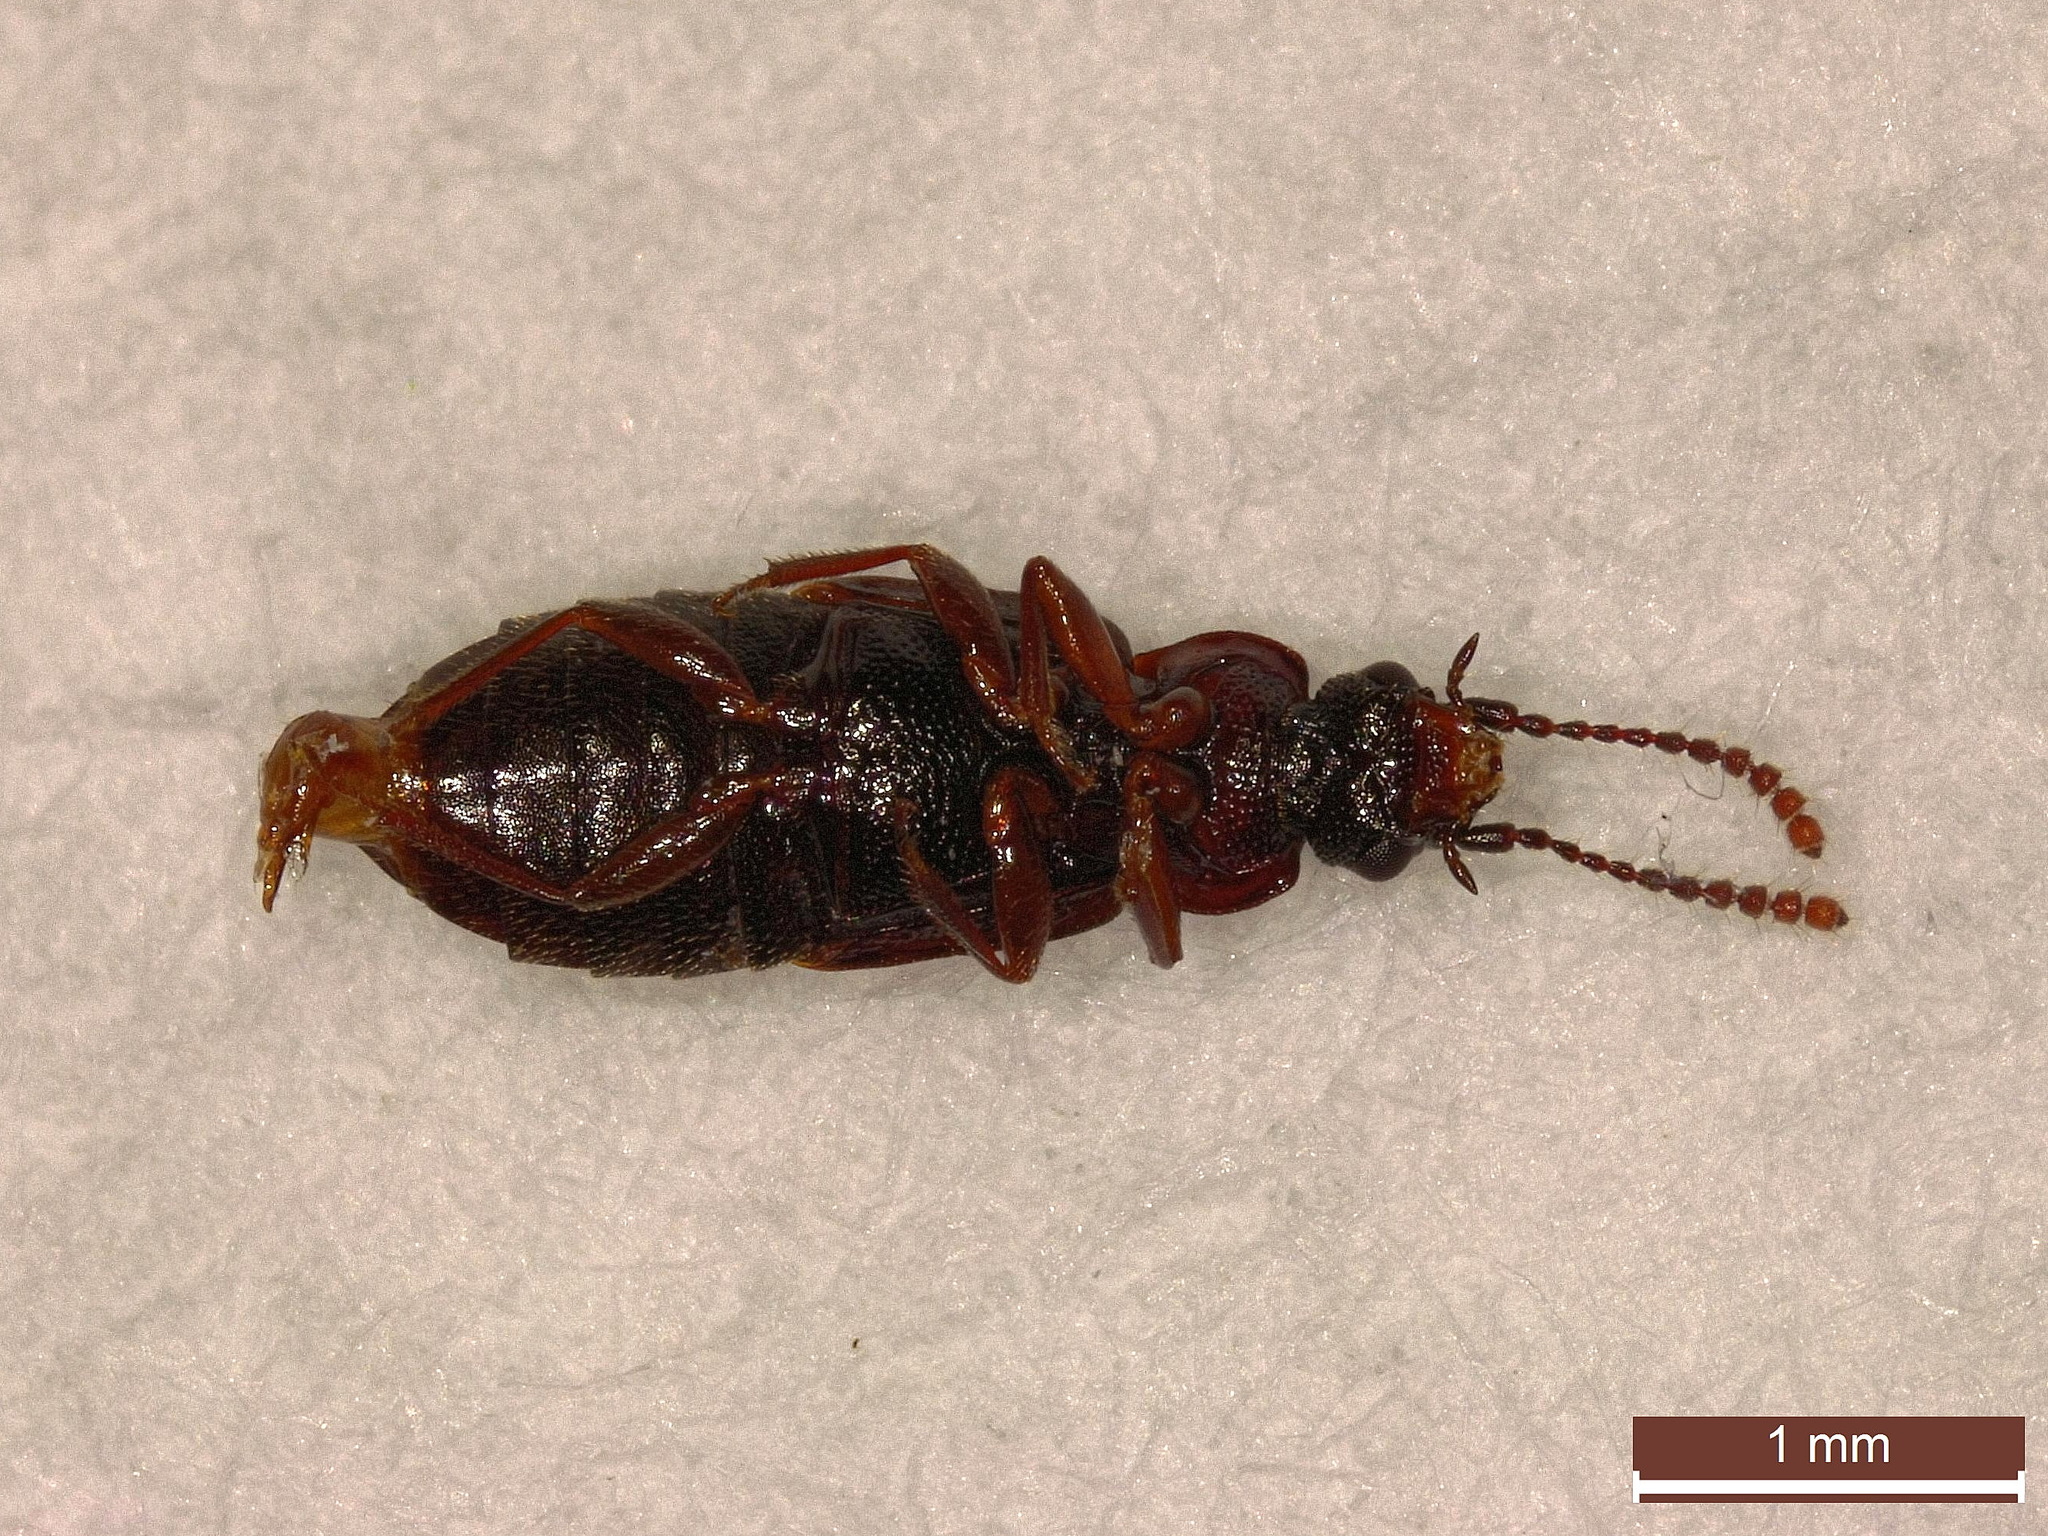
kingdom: Animalia
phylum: Arthropoda
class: Insecta
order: Coleoptera
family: Staphylinidae
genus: Omalium
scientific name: Omalium caesum
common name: Staph beetle
